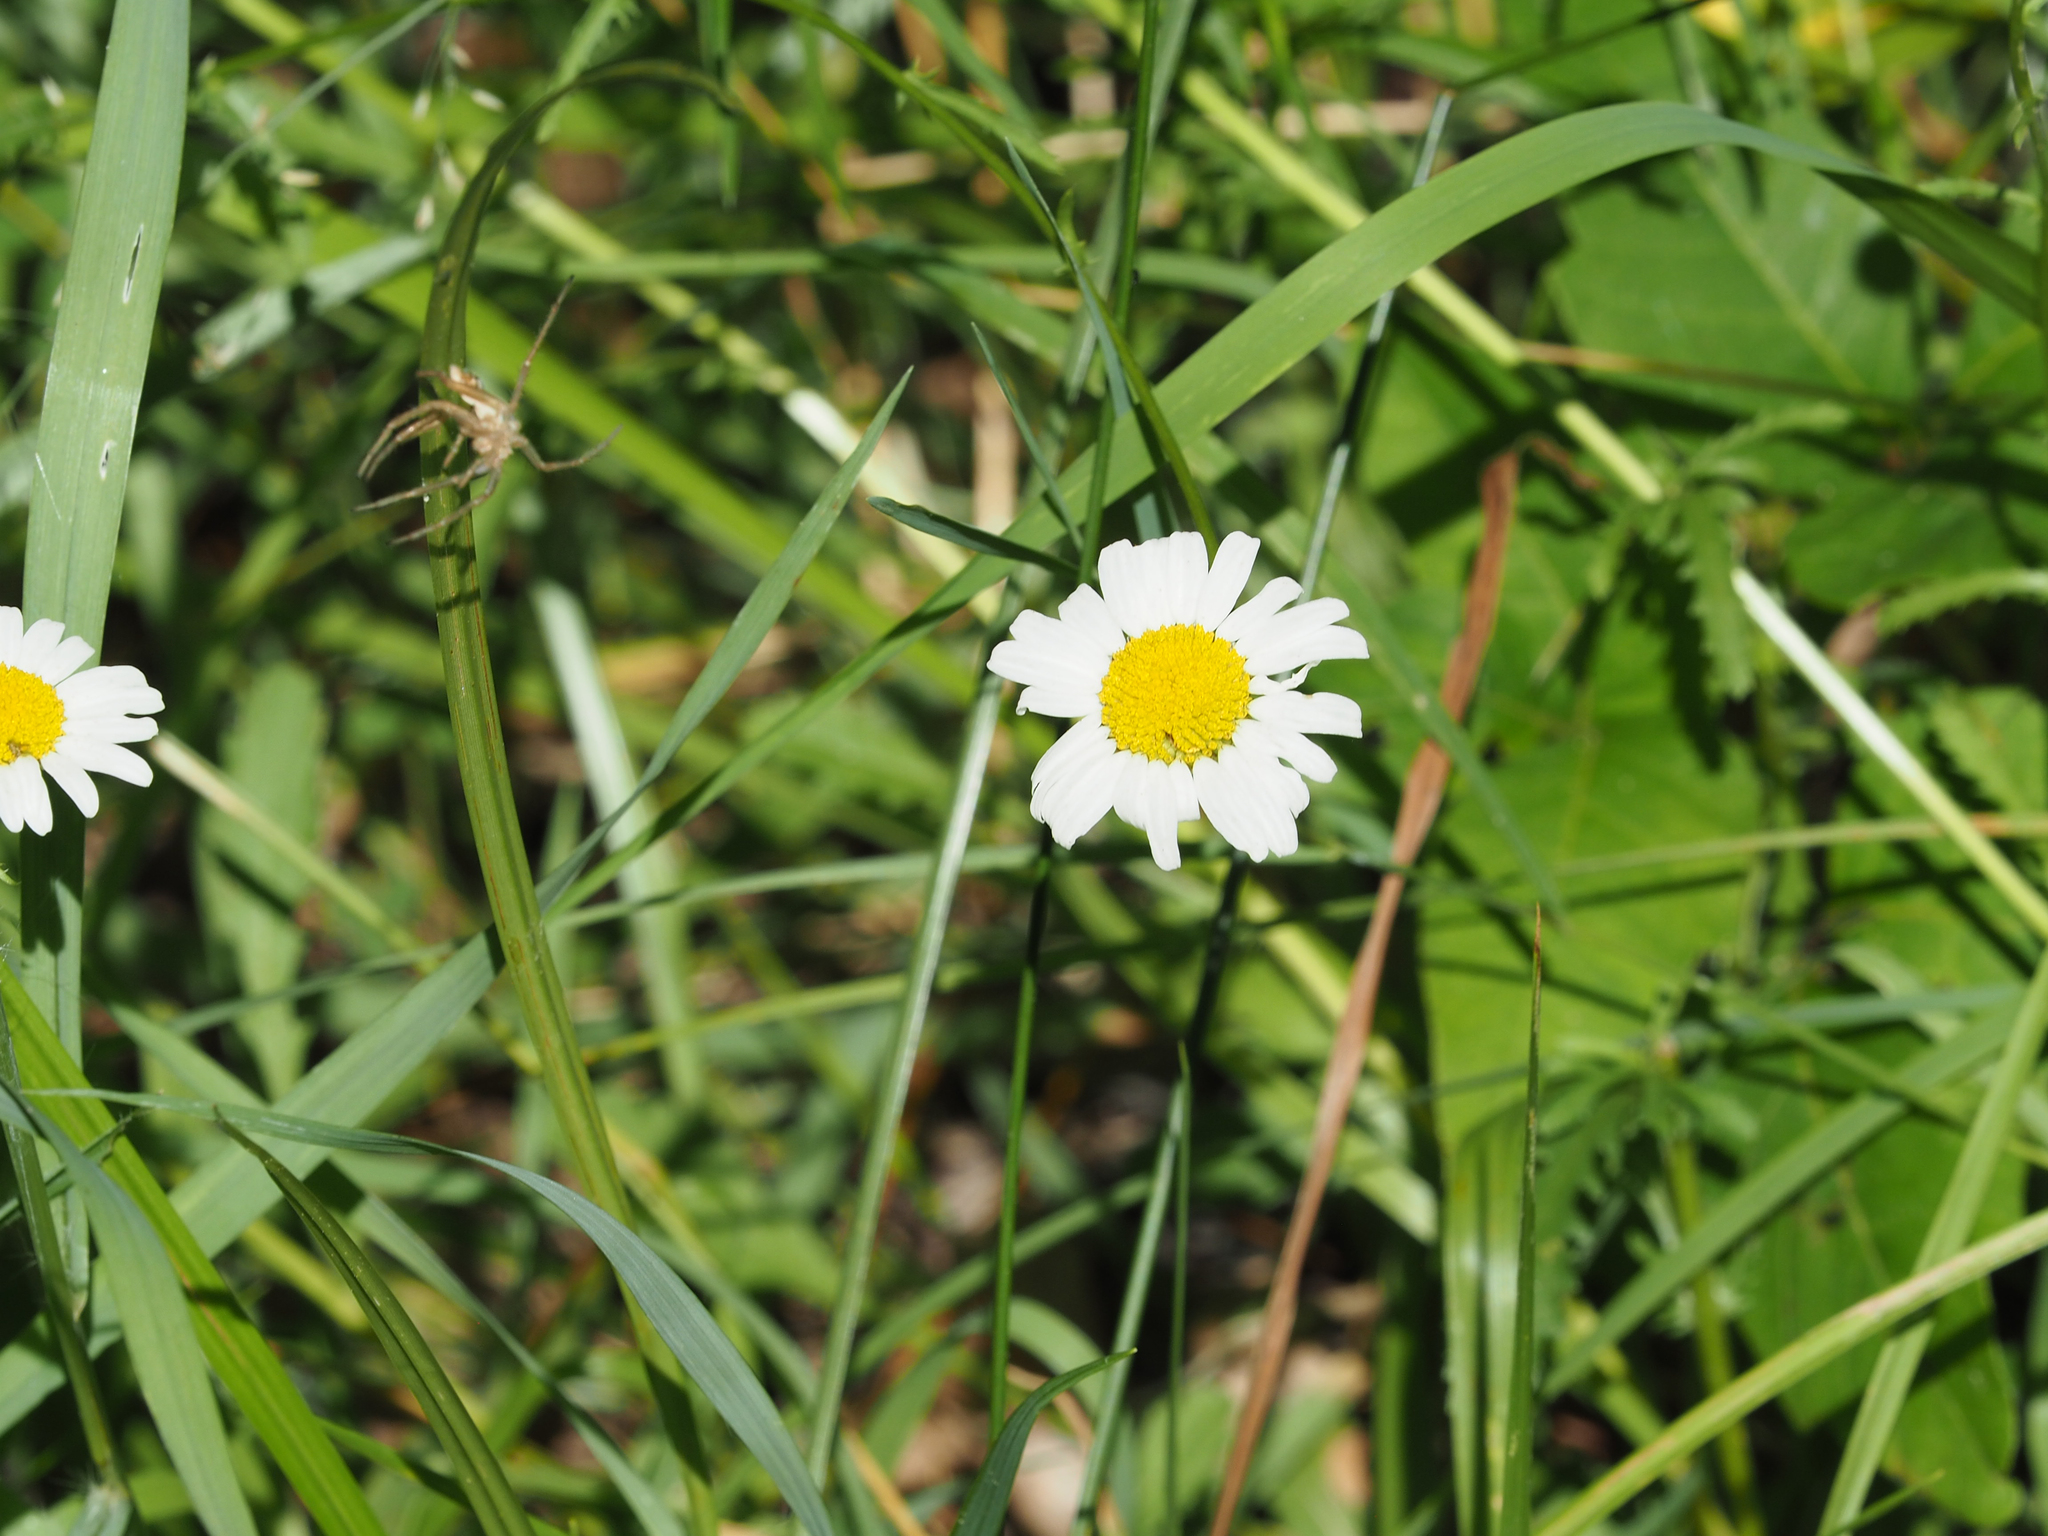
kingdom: Plantae
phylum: Tracheophyta
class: Magnoliopsida
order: Asterales
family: Asteraceae
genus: Leucanthemum
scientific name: Leucanthemum vulgare
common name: Oxeye daisy
